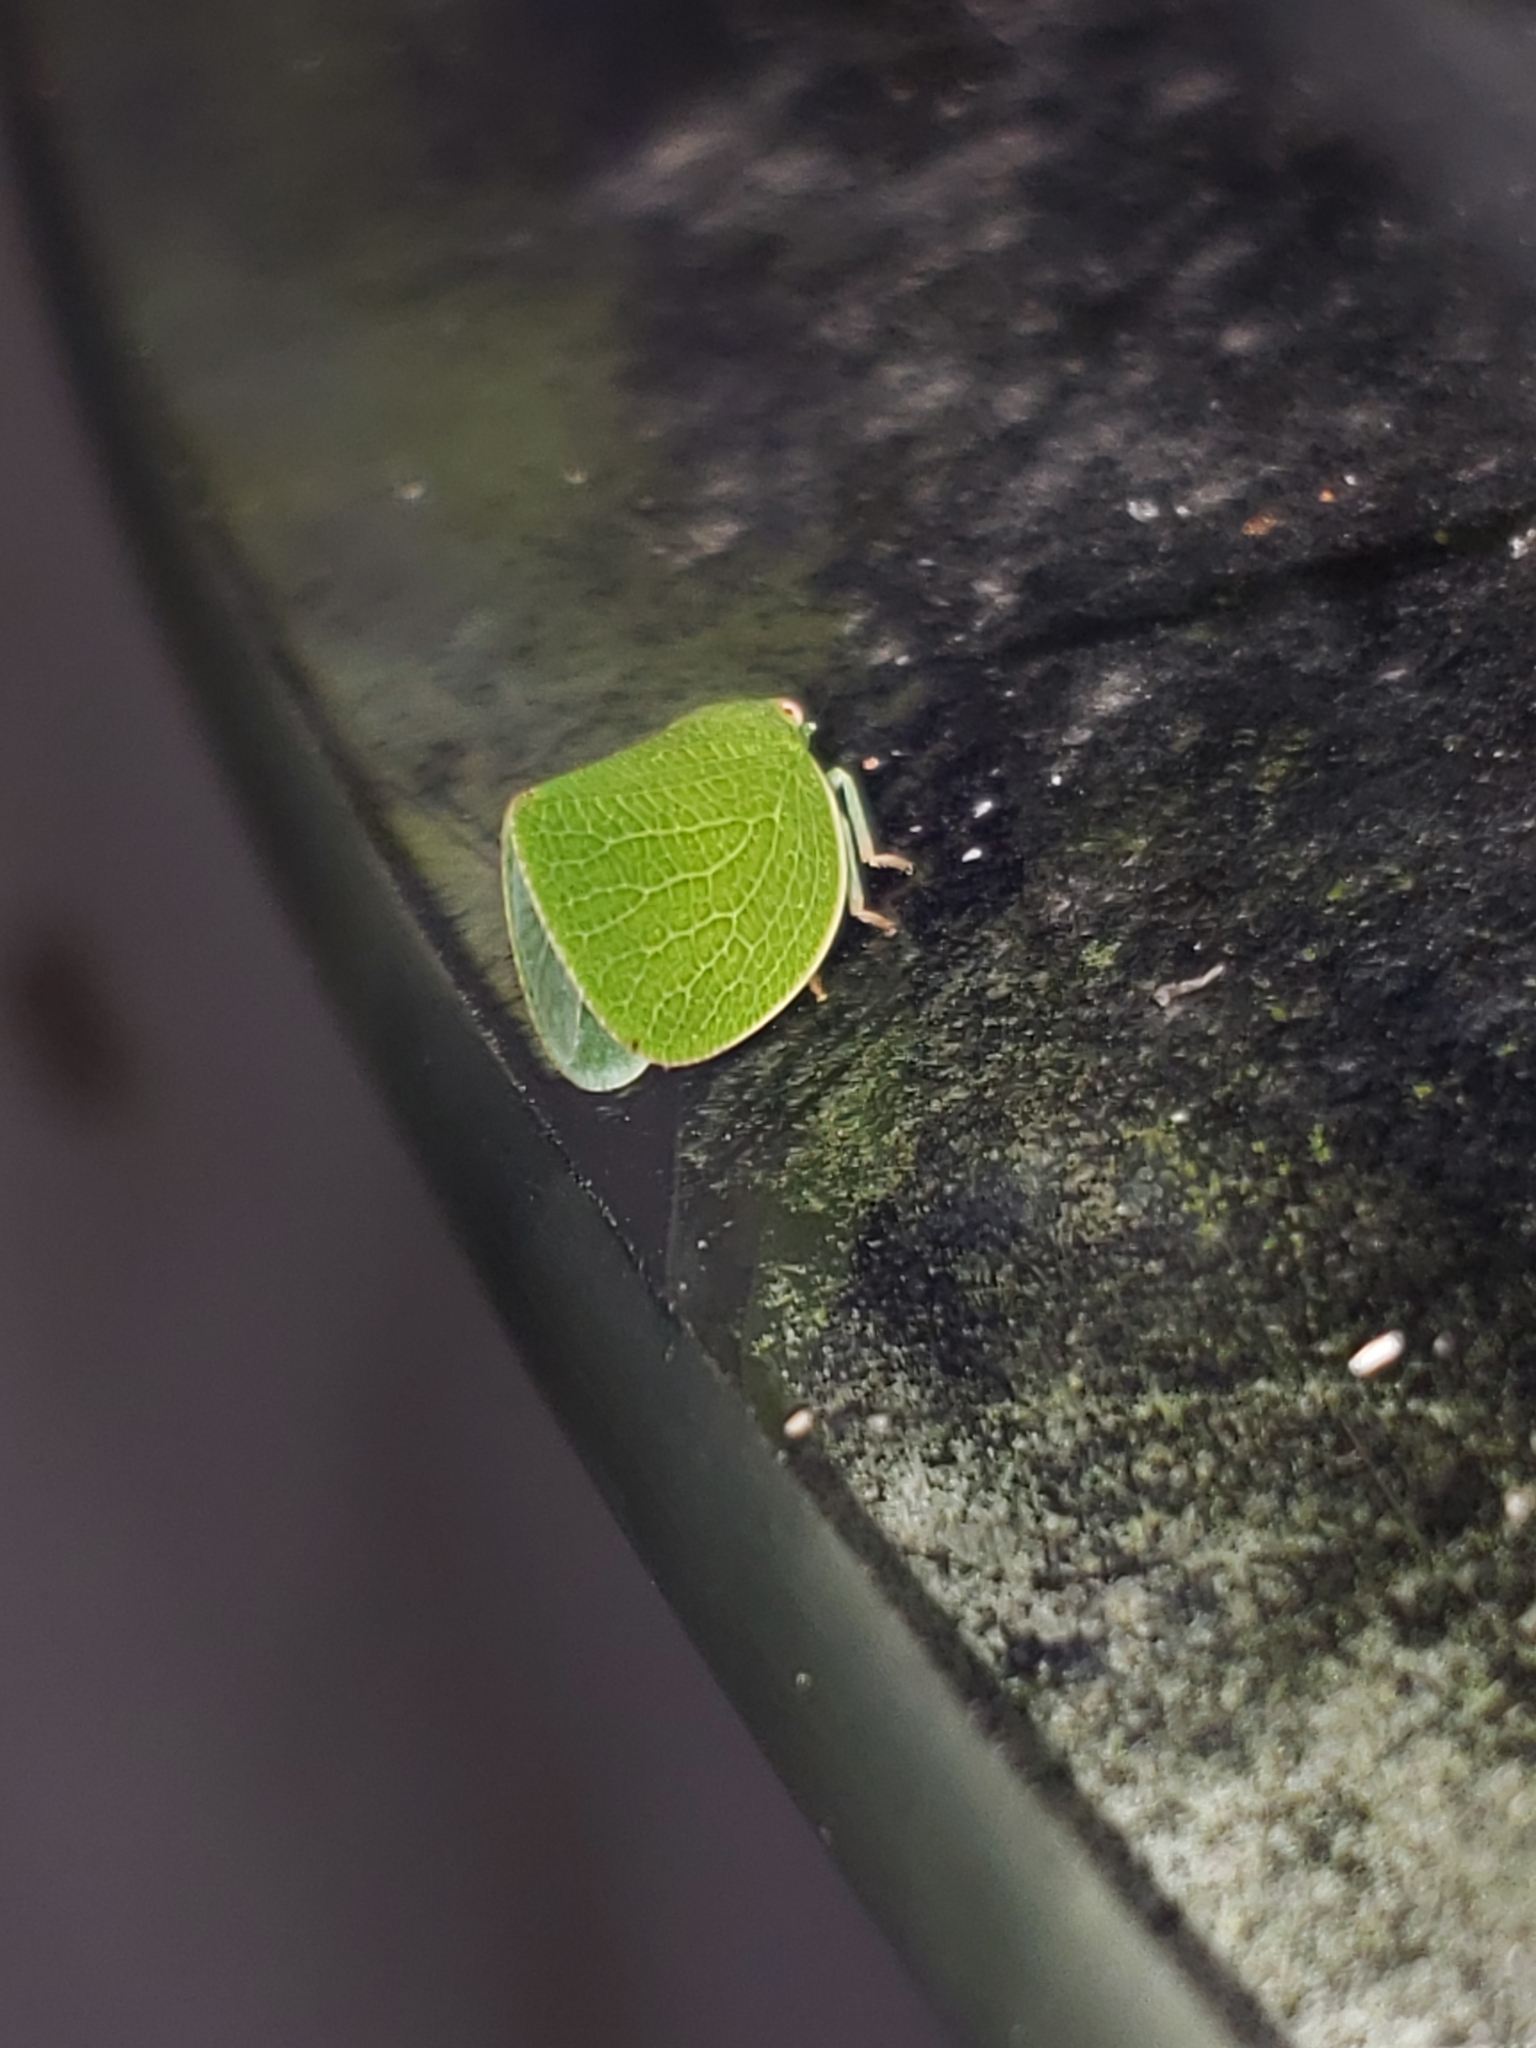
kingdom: Animalia
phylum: Arthropoda
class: Insecta
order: Hemiptera
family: Acanaloniidae
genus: Acanalonia
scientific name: Acanalonia conica
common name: Green cone-headed planthopper
